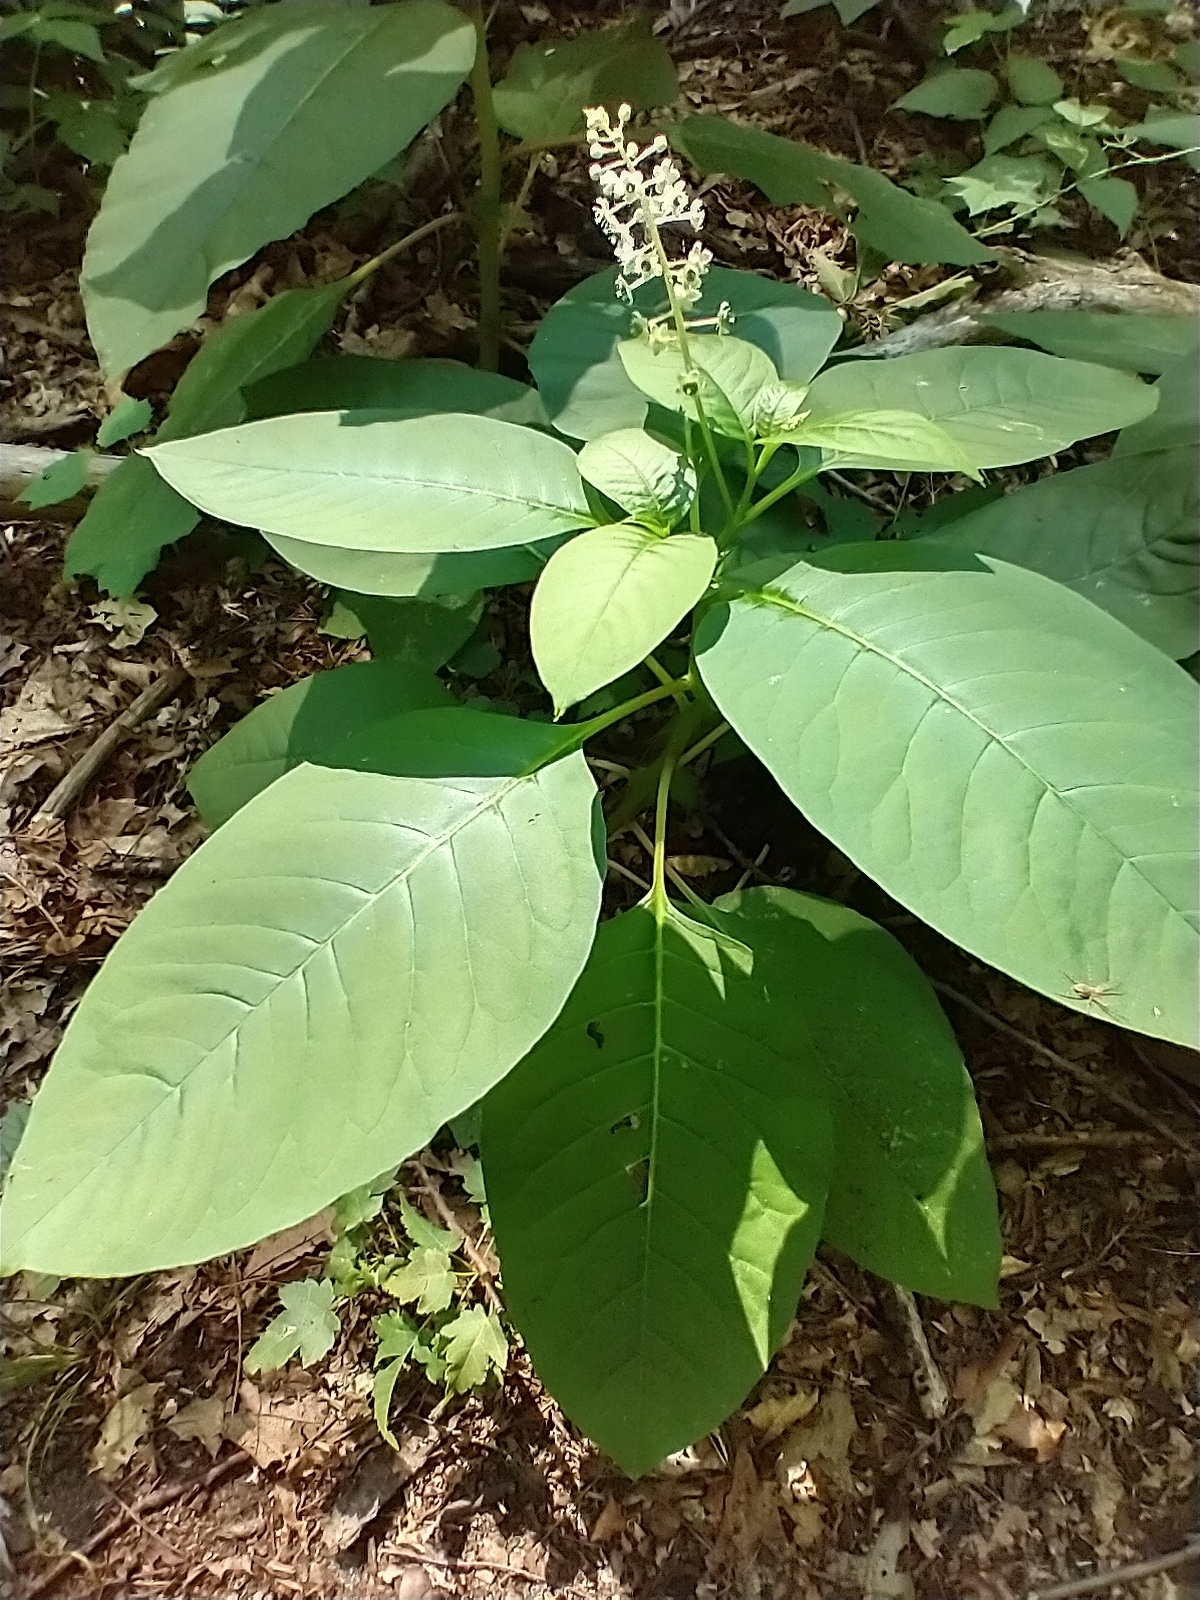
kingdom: Plantae
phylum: Tracheophyta
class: Magnoliopsida
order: Caryophyllales
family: Phytolaccaceae
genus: Phytolacca
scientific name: Phytolacca americana
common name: American pokeweed
